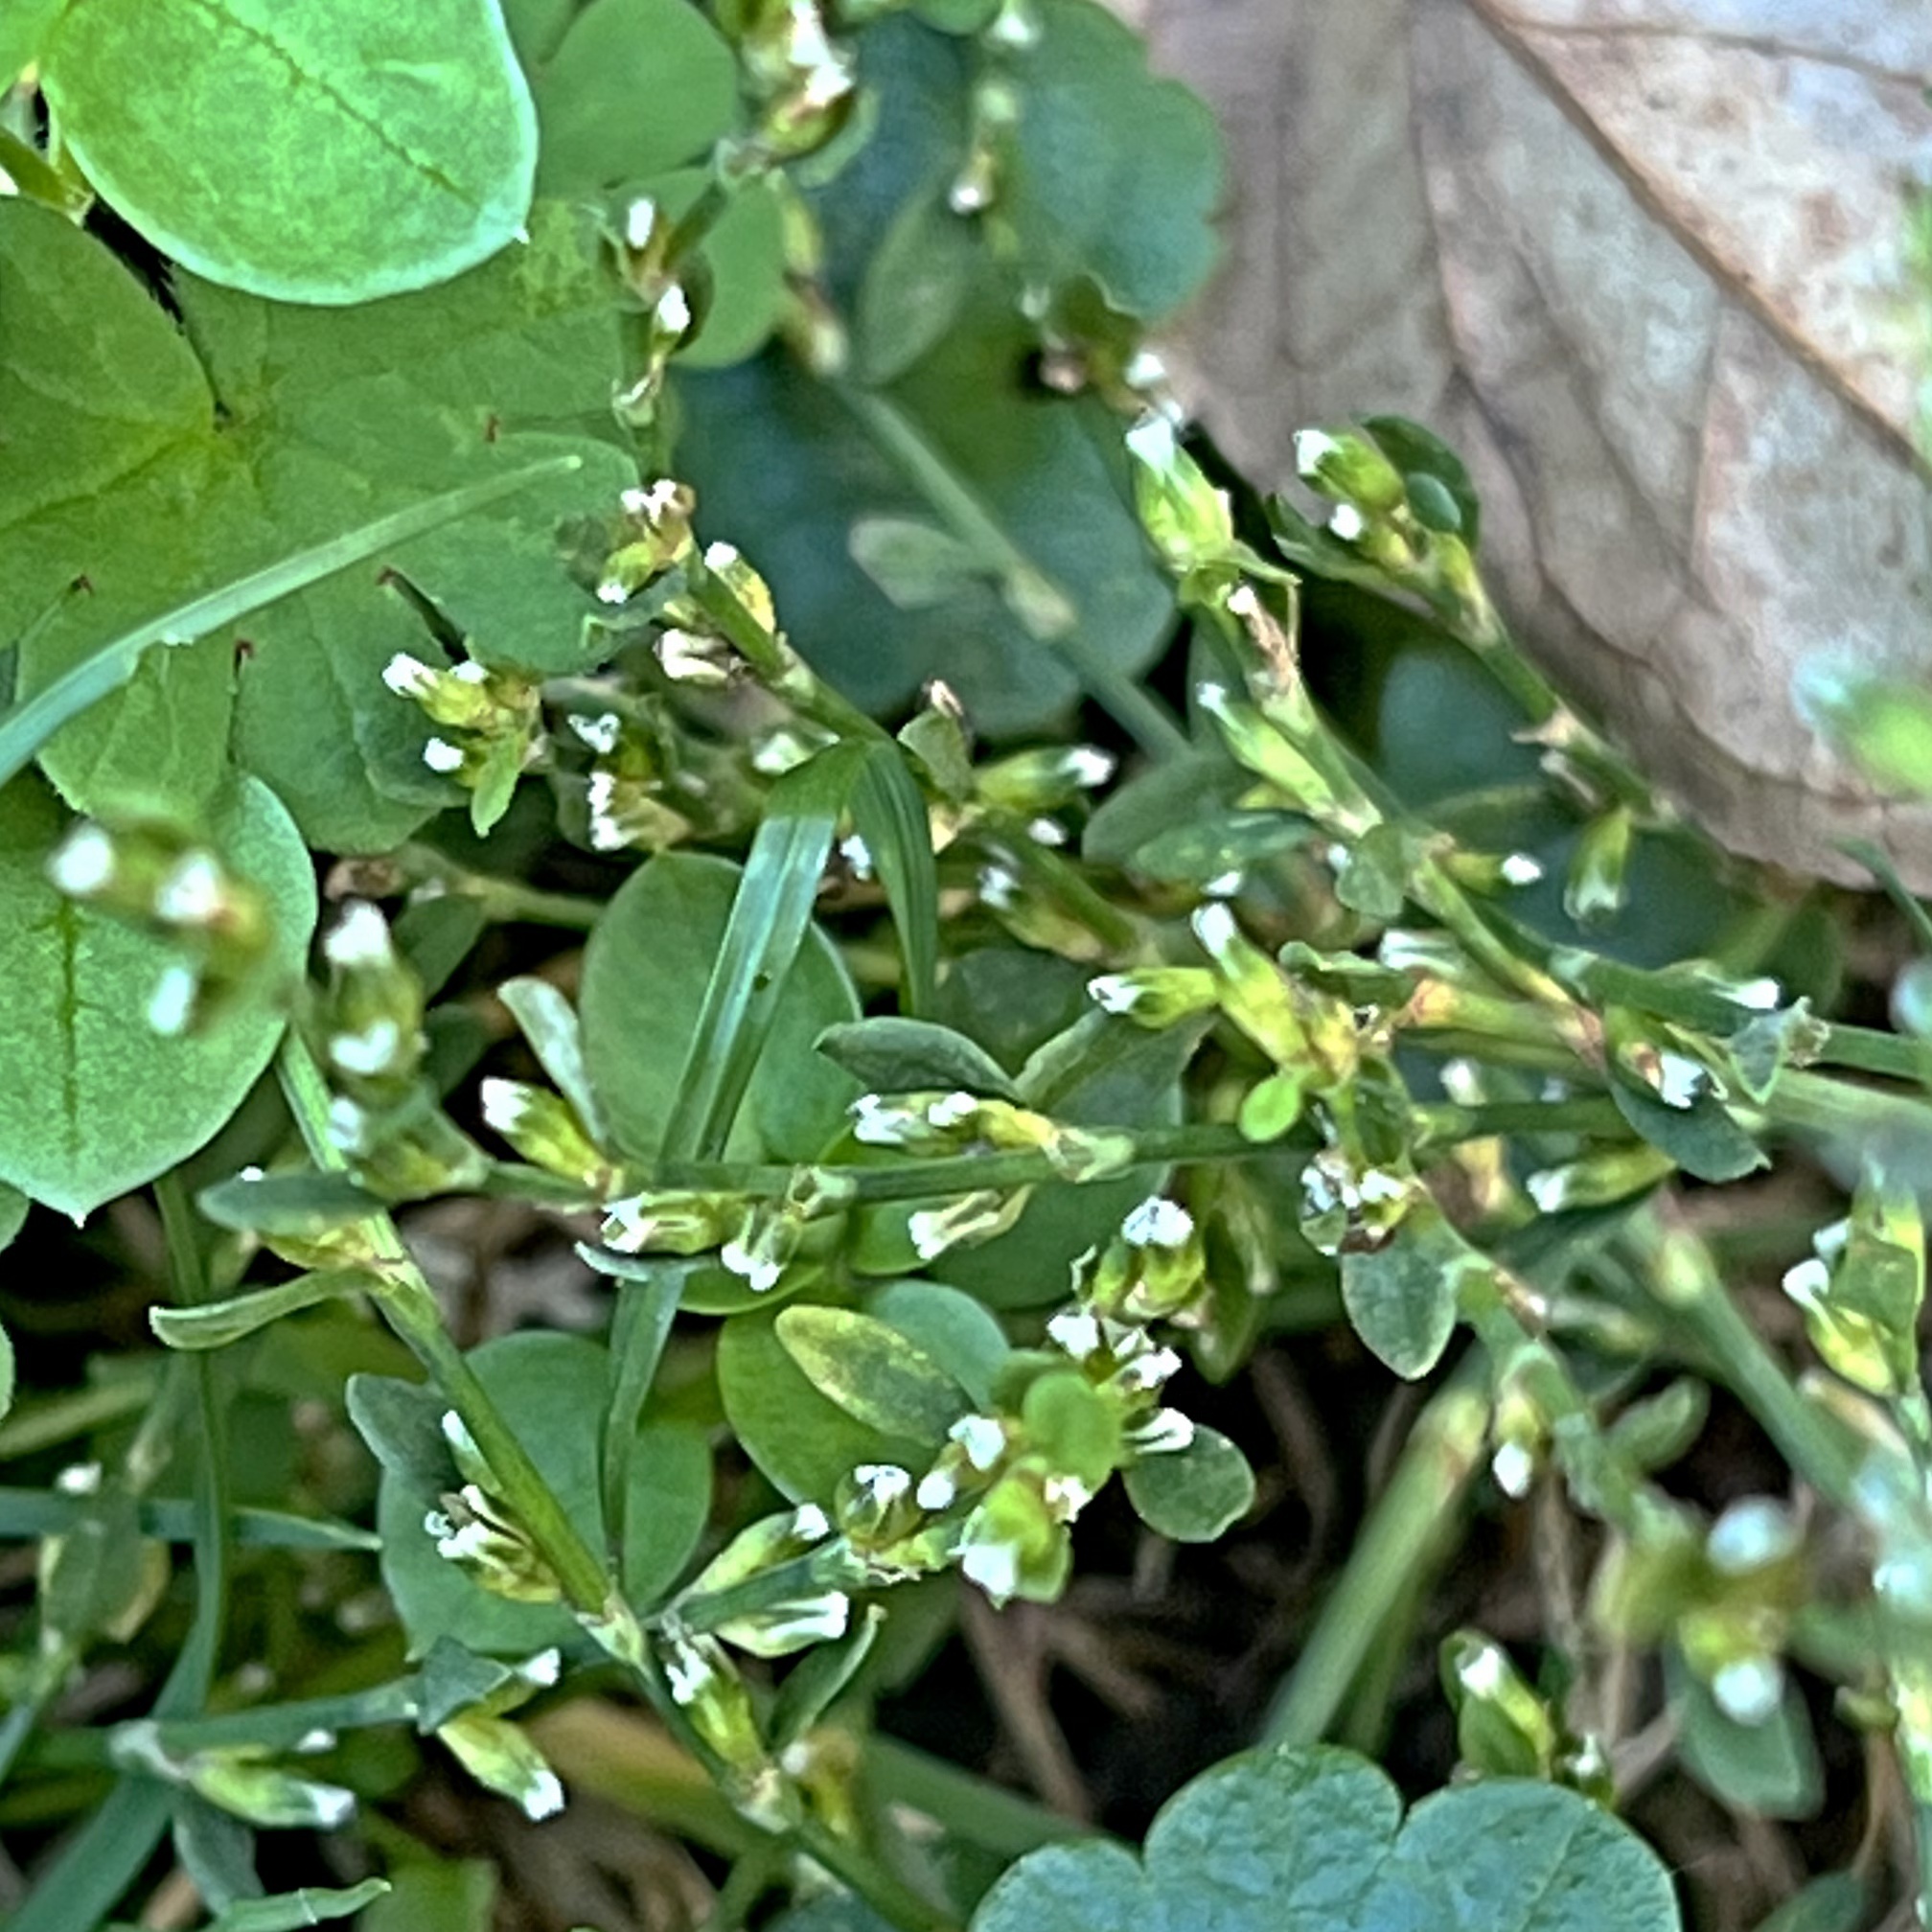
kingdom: Plantae
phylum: Tracheophyta
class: Magnoliopsida
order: Caryophyllales
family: Polygonaceae
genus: Polygonum
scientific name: Polygonum
